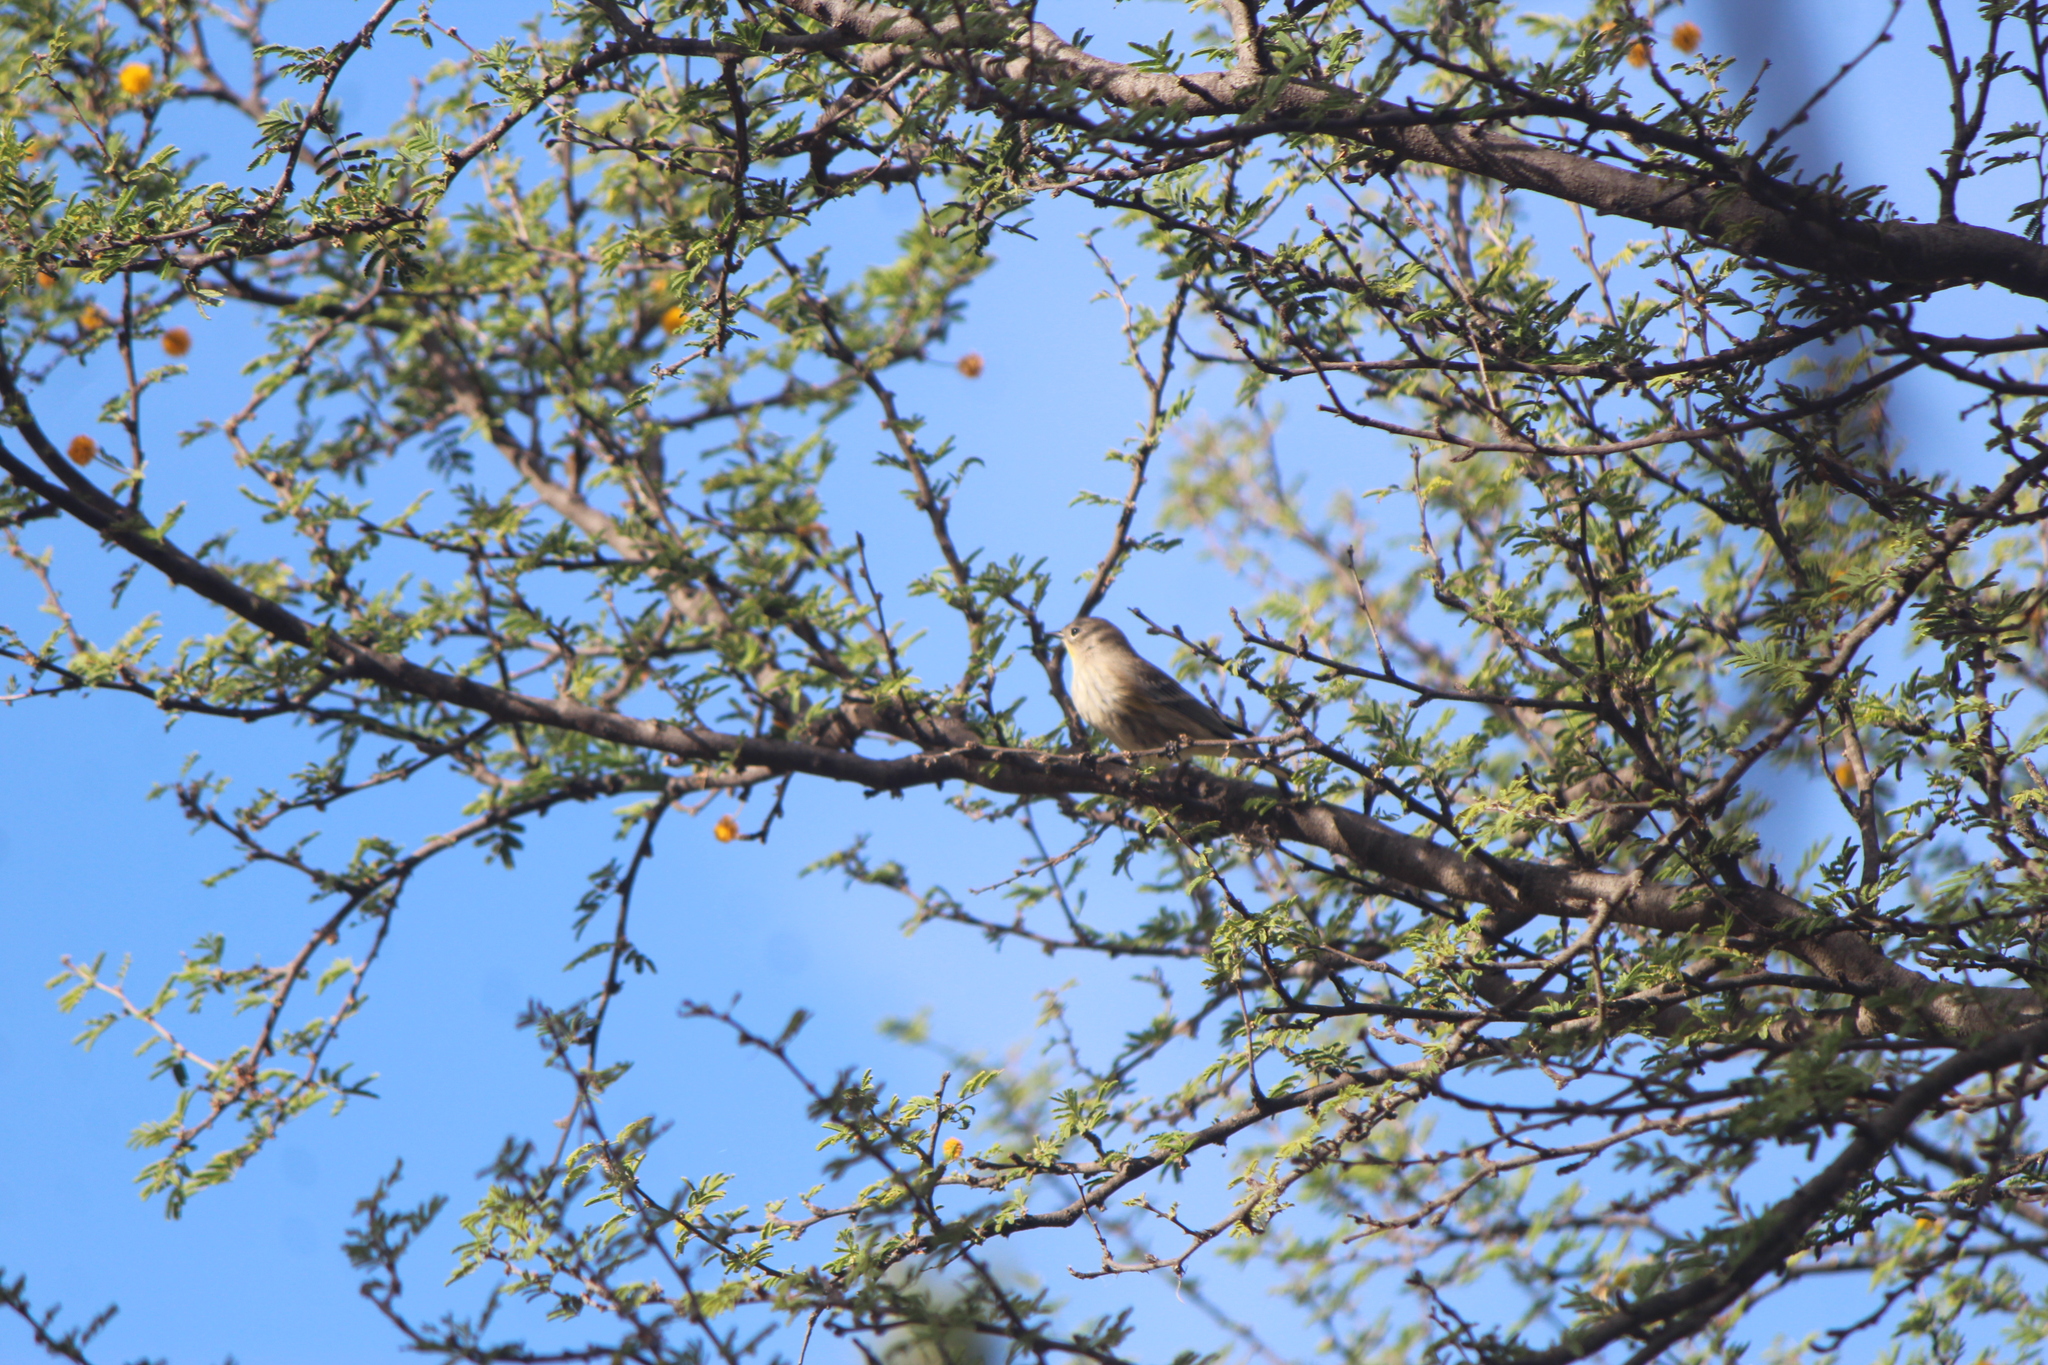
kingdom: Animalia
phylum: Chordata
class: Aves
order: Passeriformes
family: Parulidae
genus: Setophaga
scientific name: Setophaga coronata
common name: Myrtle warbler
